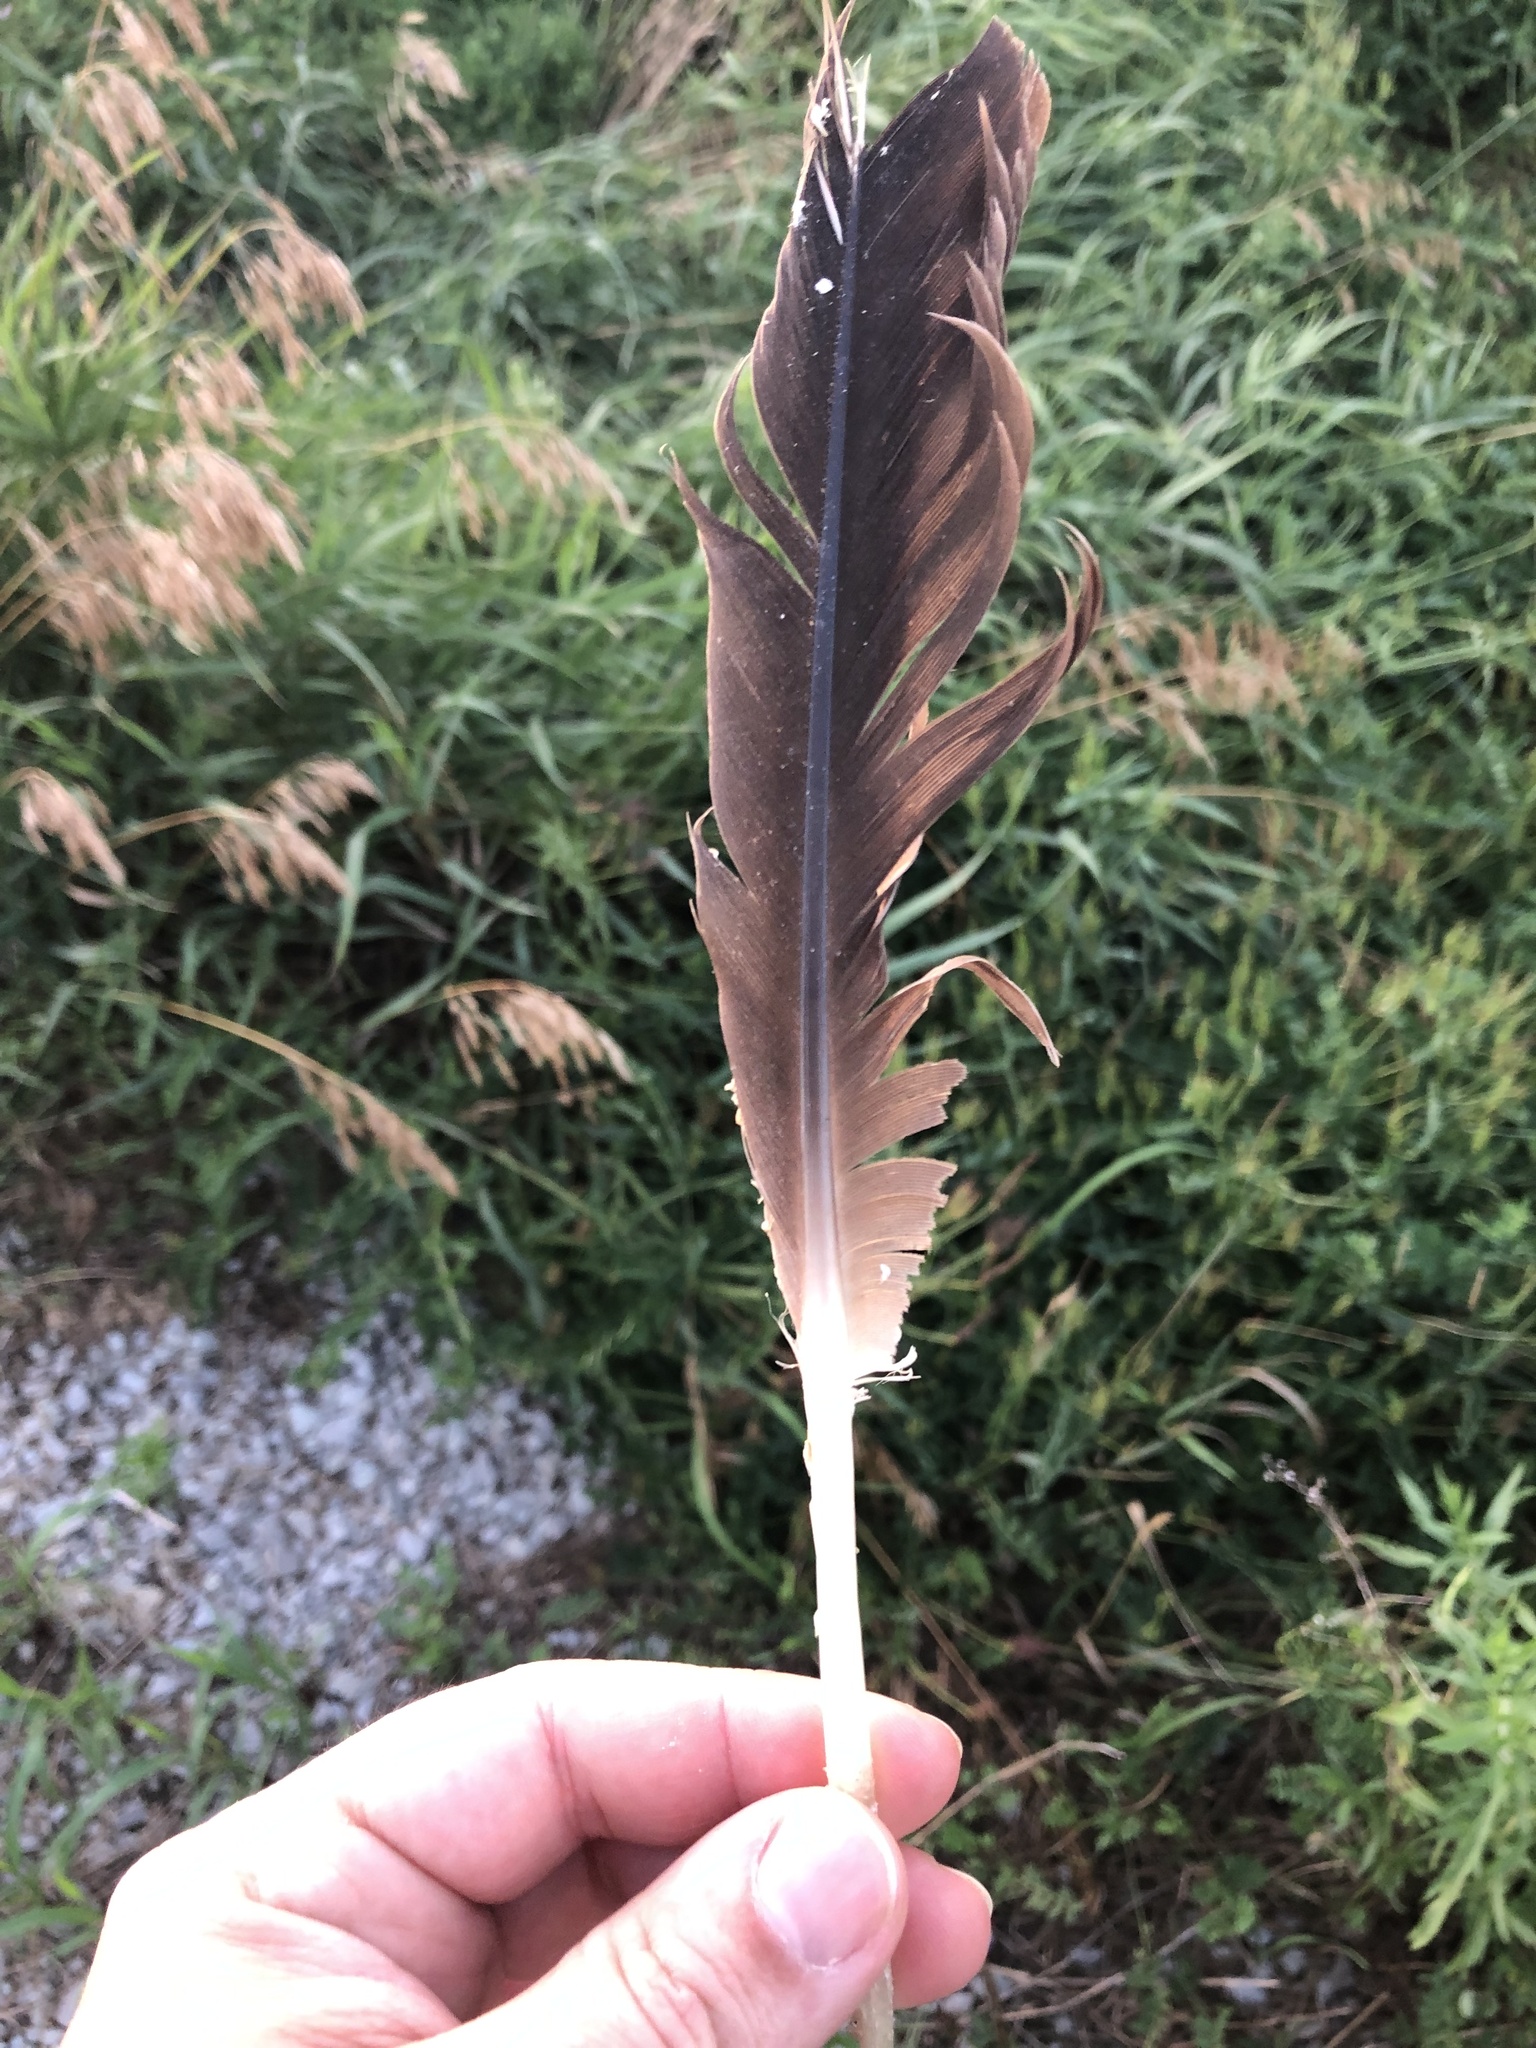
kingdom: Animalia
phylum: Chordata
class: Aves
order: Anseriformes
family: Anatidae
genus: Branta
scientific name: Branta canadensis
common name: Canada goose
